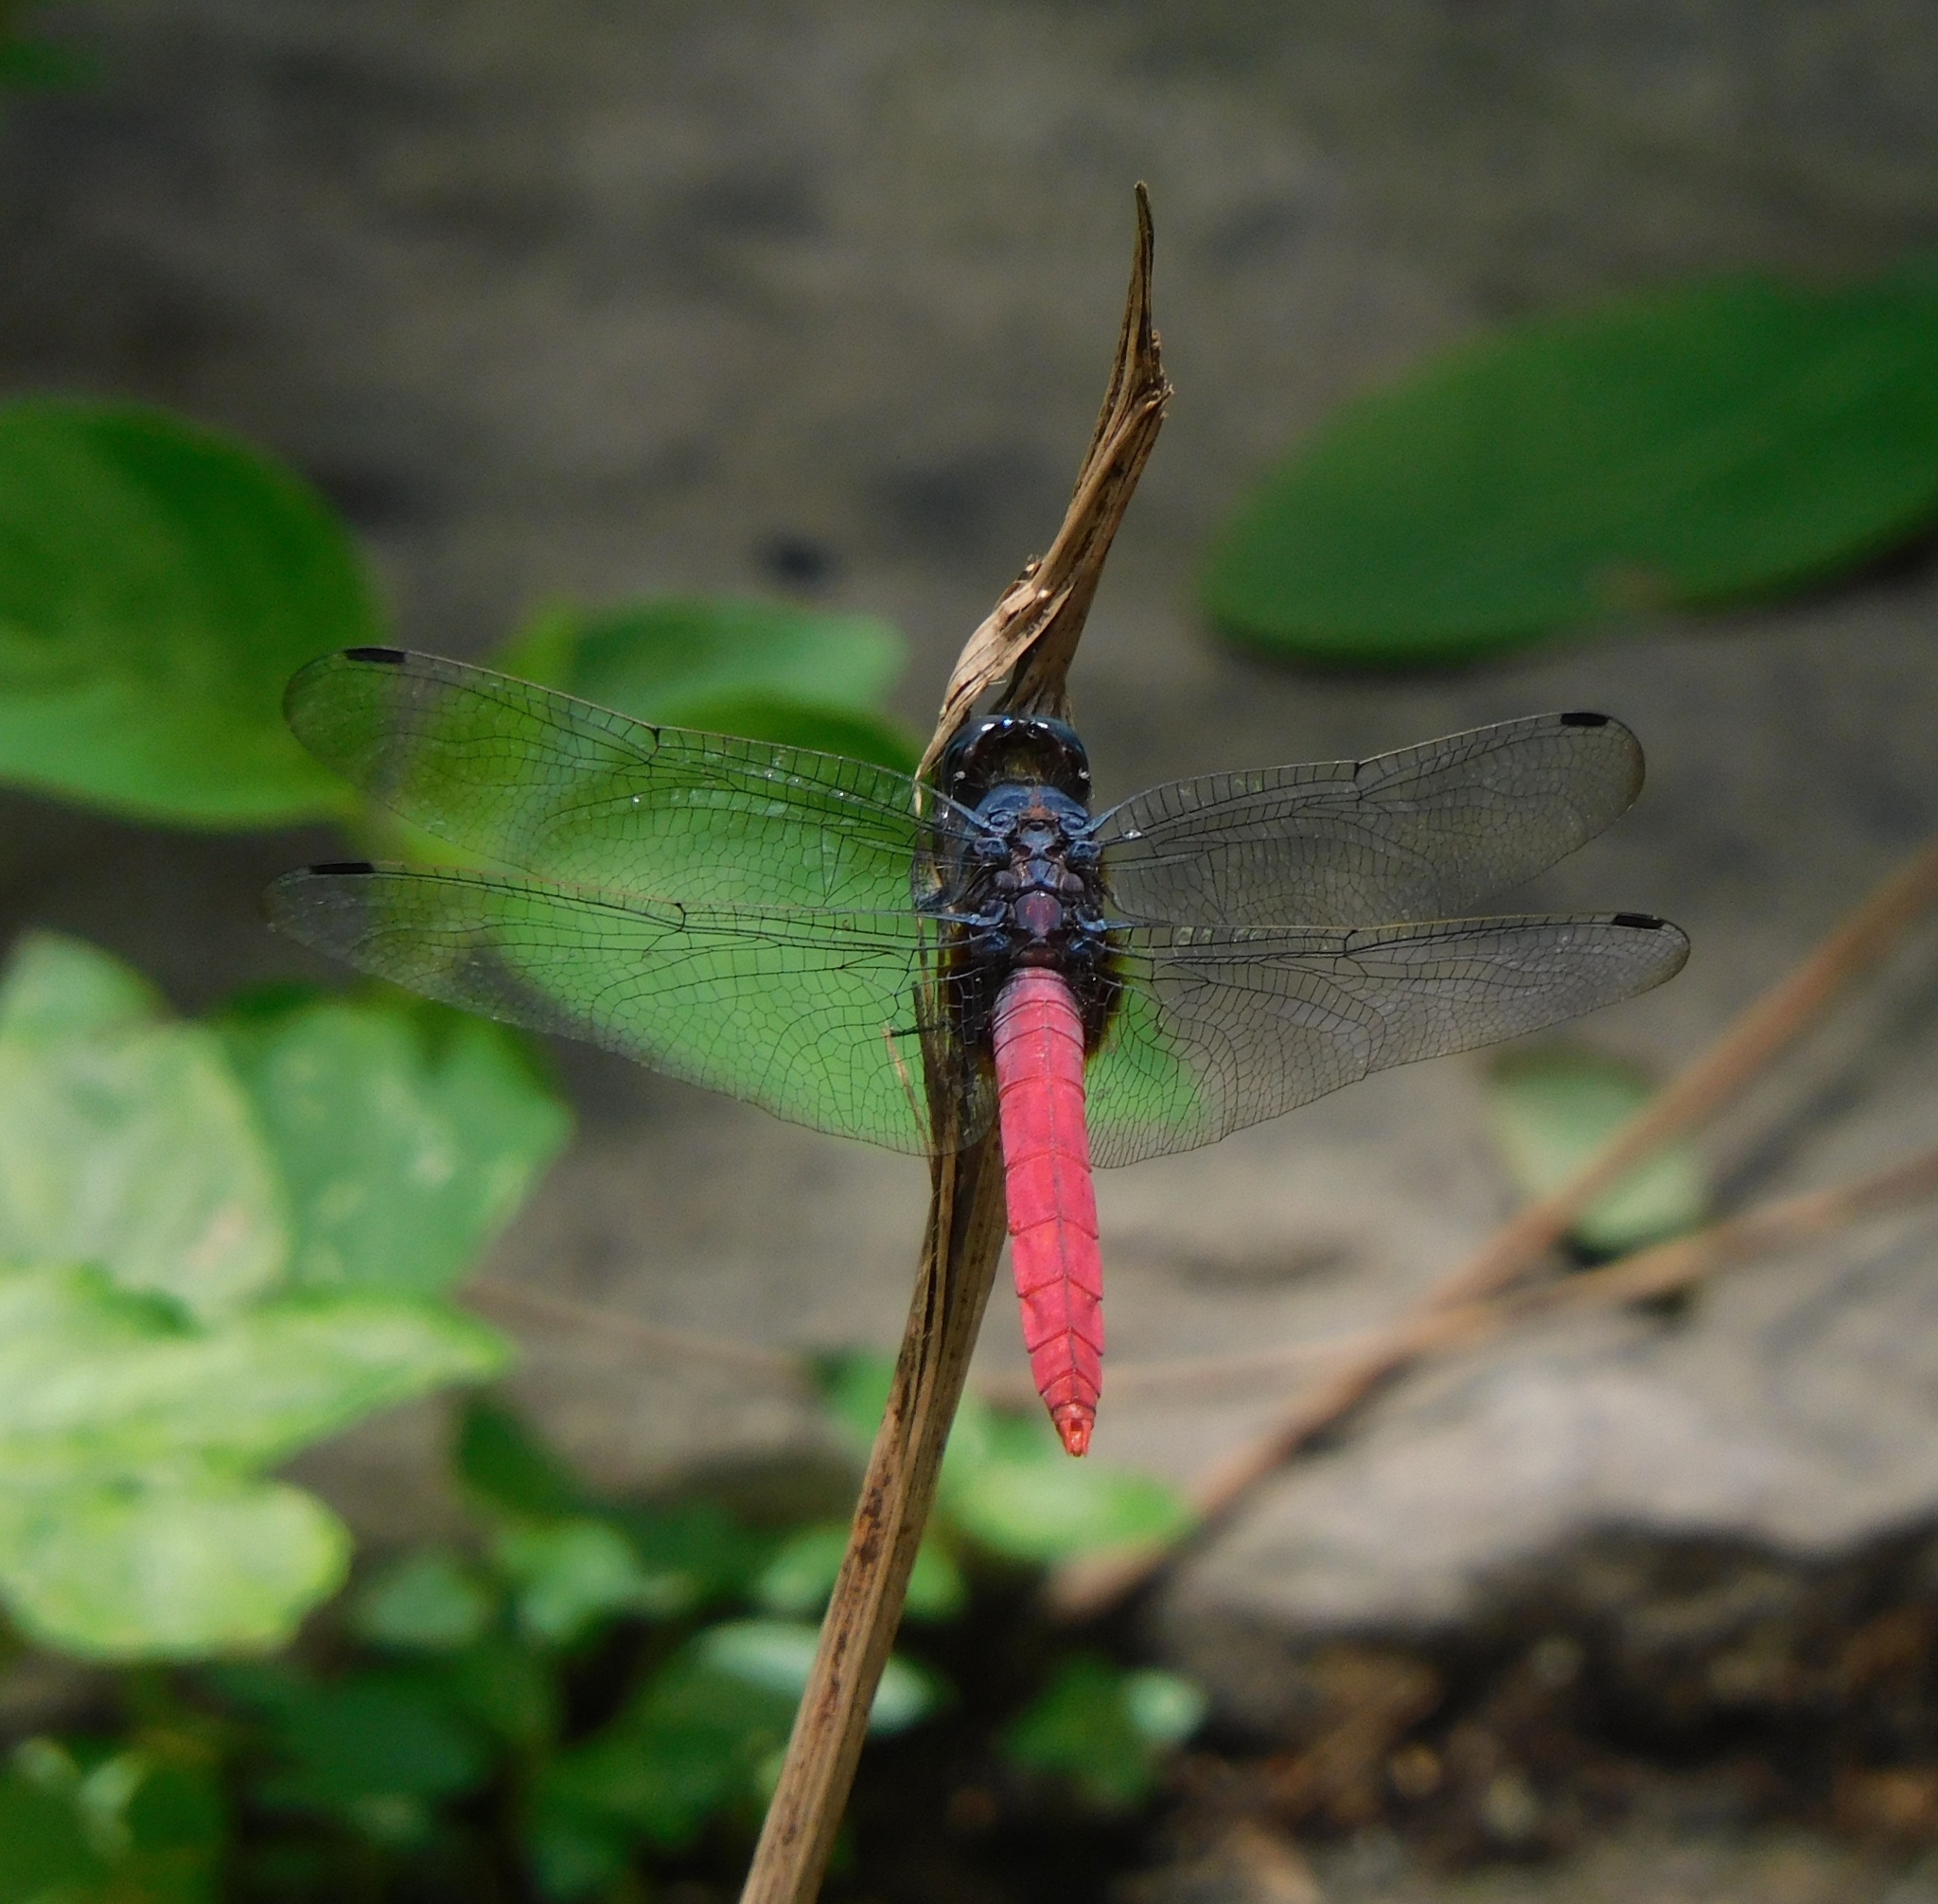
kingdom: Animalia
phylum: Arthropoda
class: Insecta
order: Odonata
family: Libellulidae
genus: Orthetrum
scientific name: Orthetrum pruinosum
